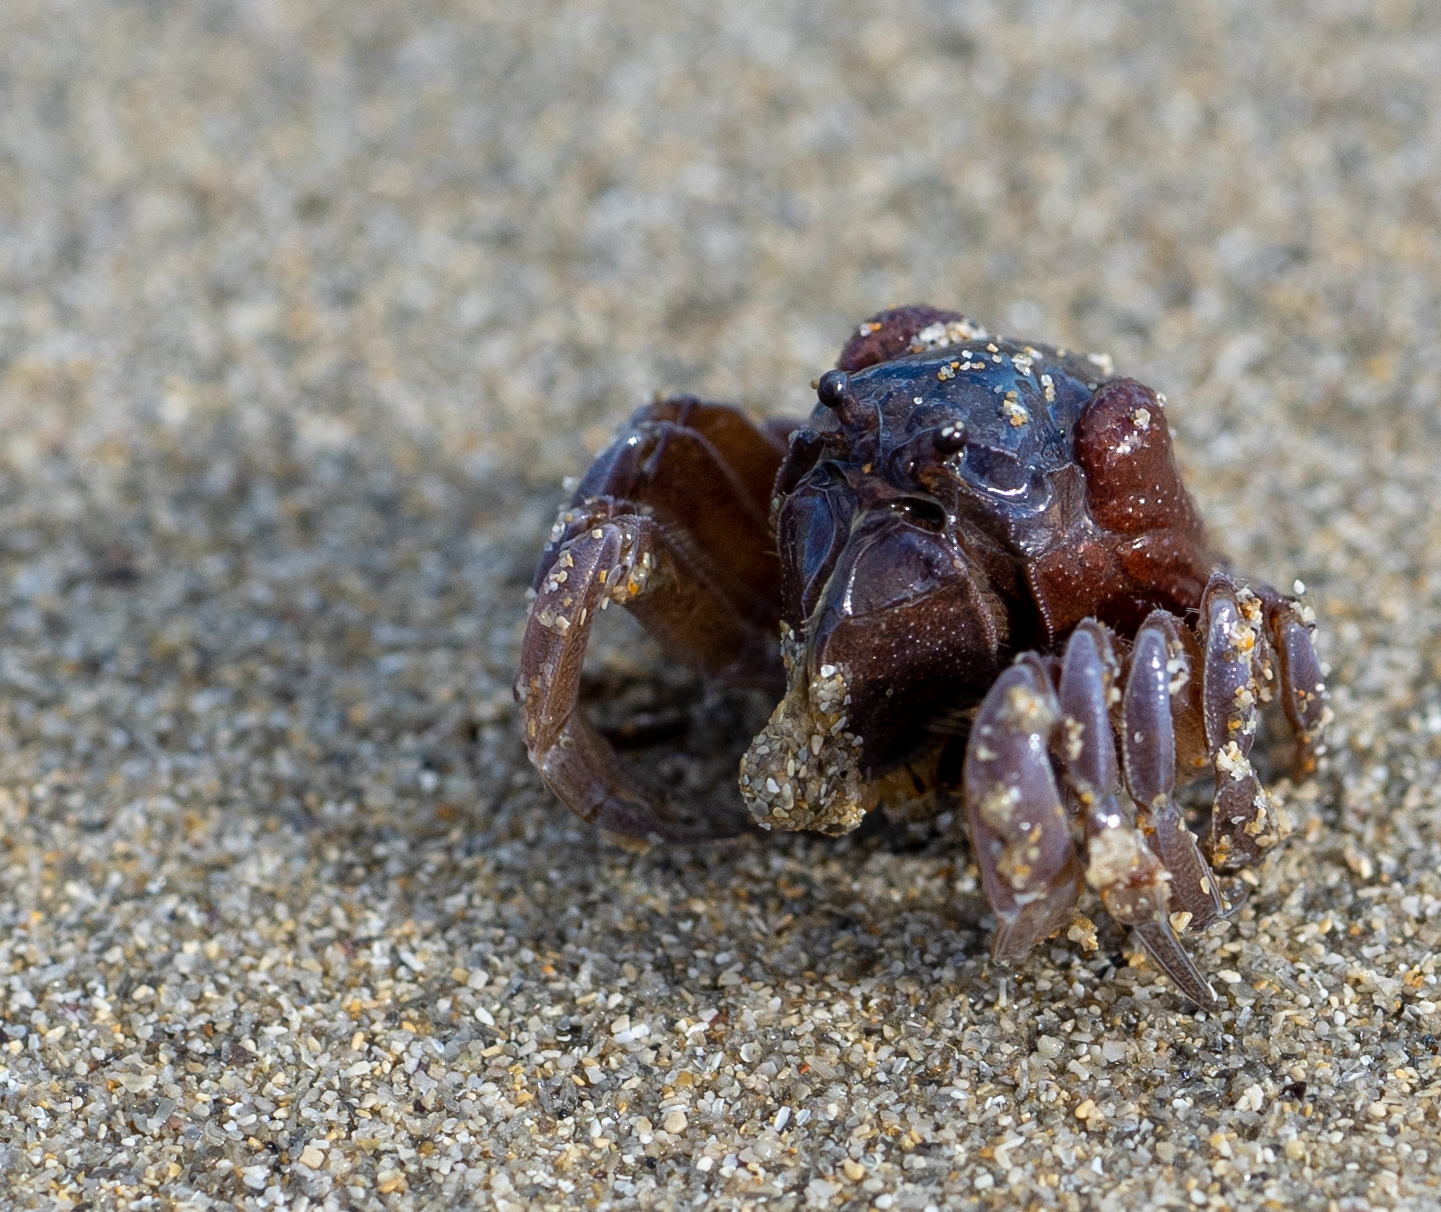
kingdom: Animalia
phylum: Arthropoda
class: Malacostraca
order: Decapoda
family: Mictyridae
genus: Mictyris
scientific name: Mictyris platycheles
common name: Dark blue soldier crab
